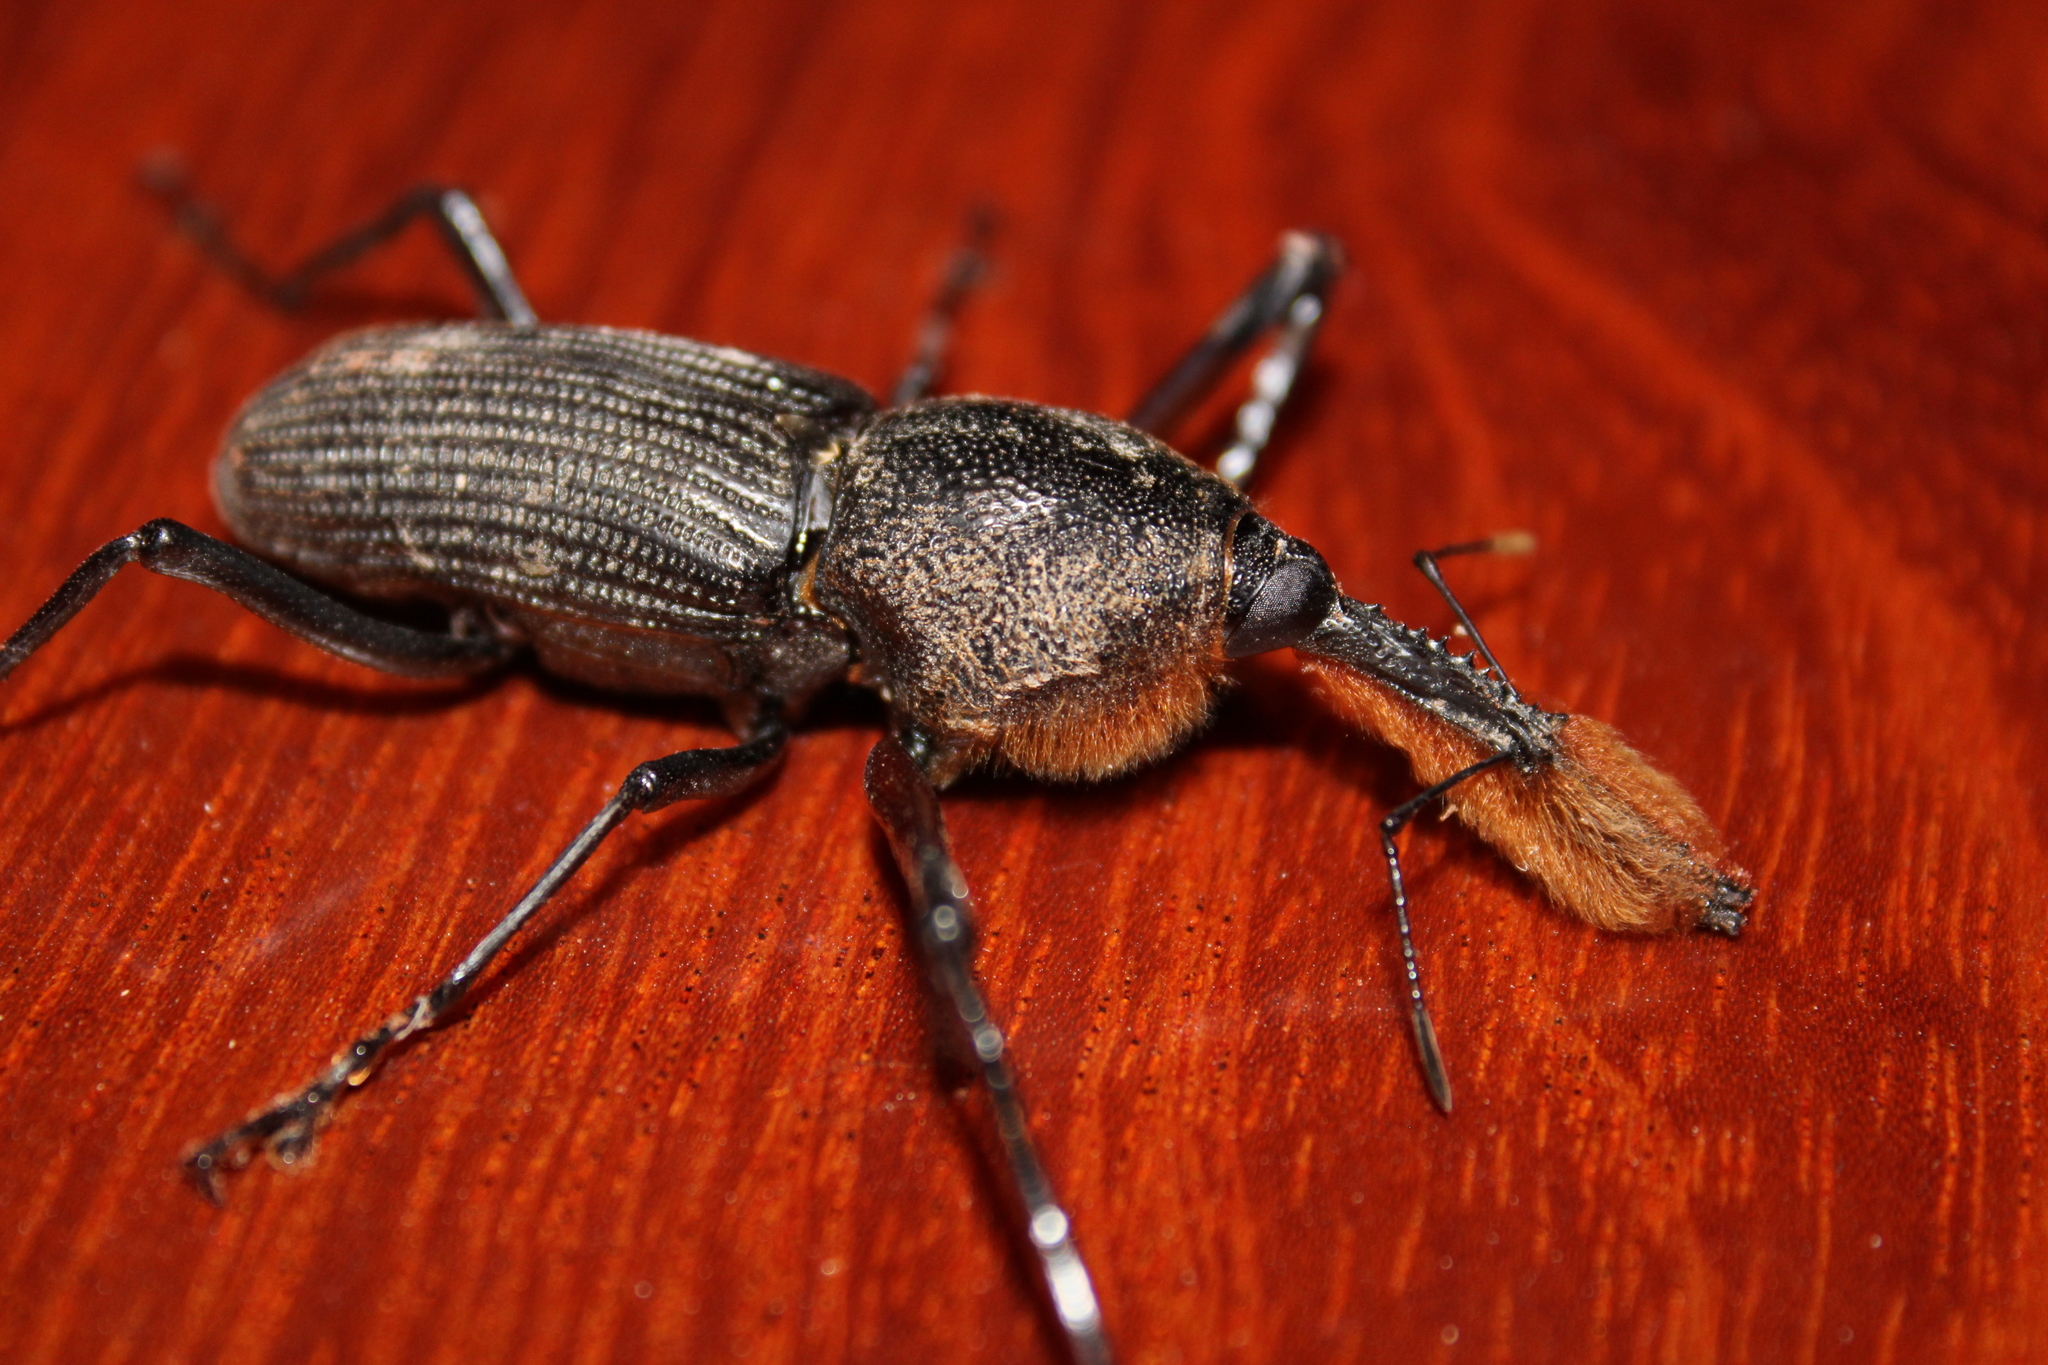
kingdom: Animalia
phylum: Arthropoda
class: Insecta
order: Coleoptera
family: Dryophthoridae
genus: Rhinostomus
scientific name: Rhinostomus barbirostris
